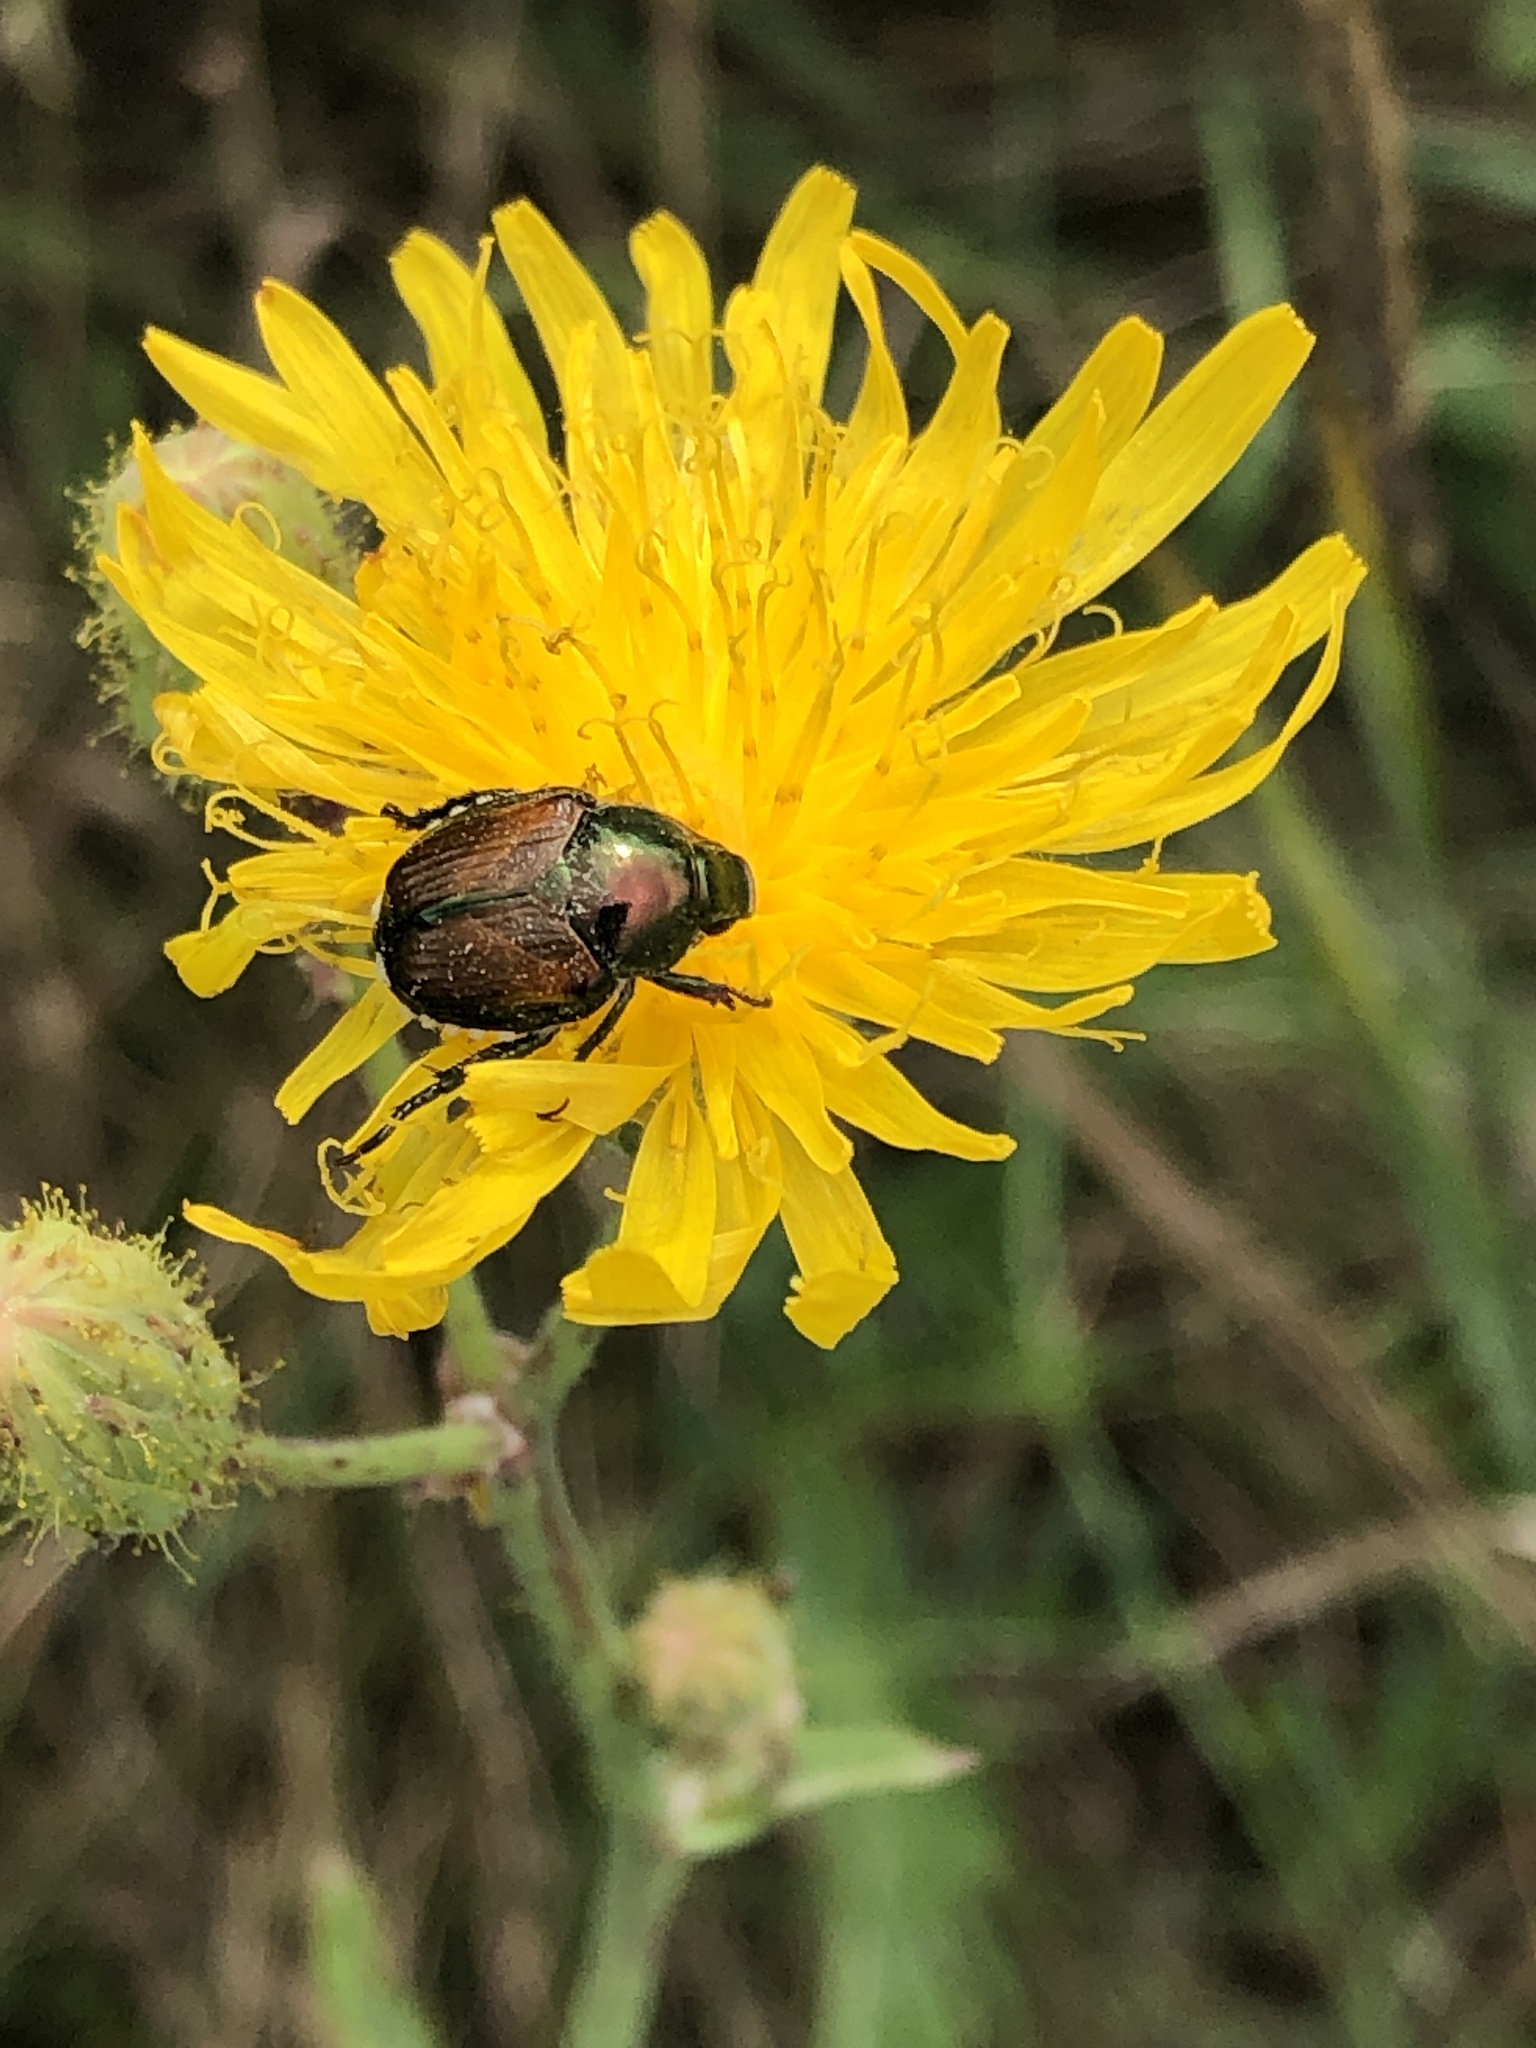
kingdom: Animalia
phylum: Arthropoda
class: Insecta
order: Coleoptera
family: Scarabaeidae
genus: Popillia
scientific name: Popillia japonica
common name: Japanese beetle
